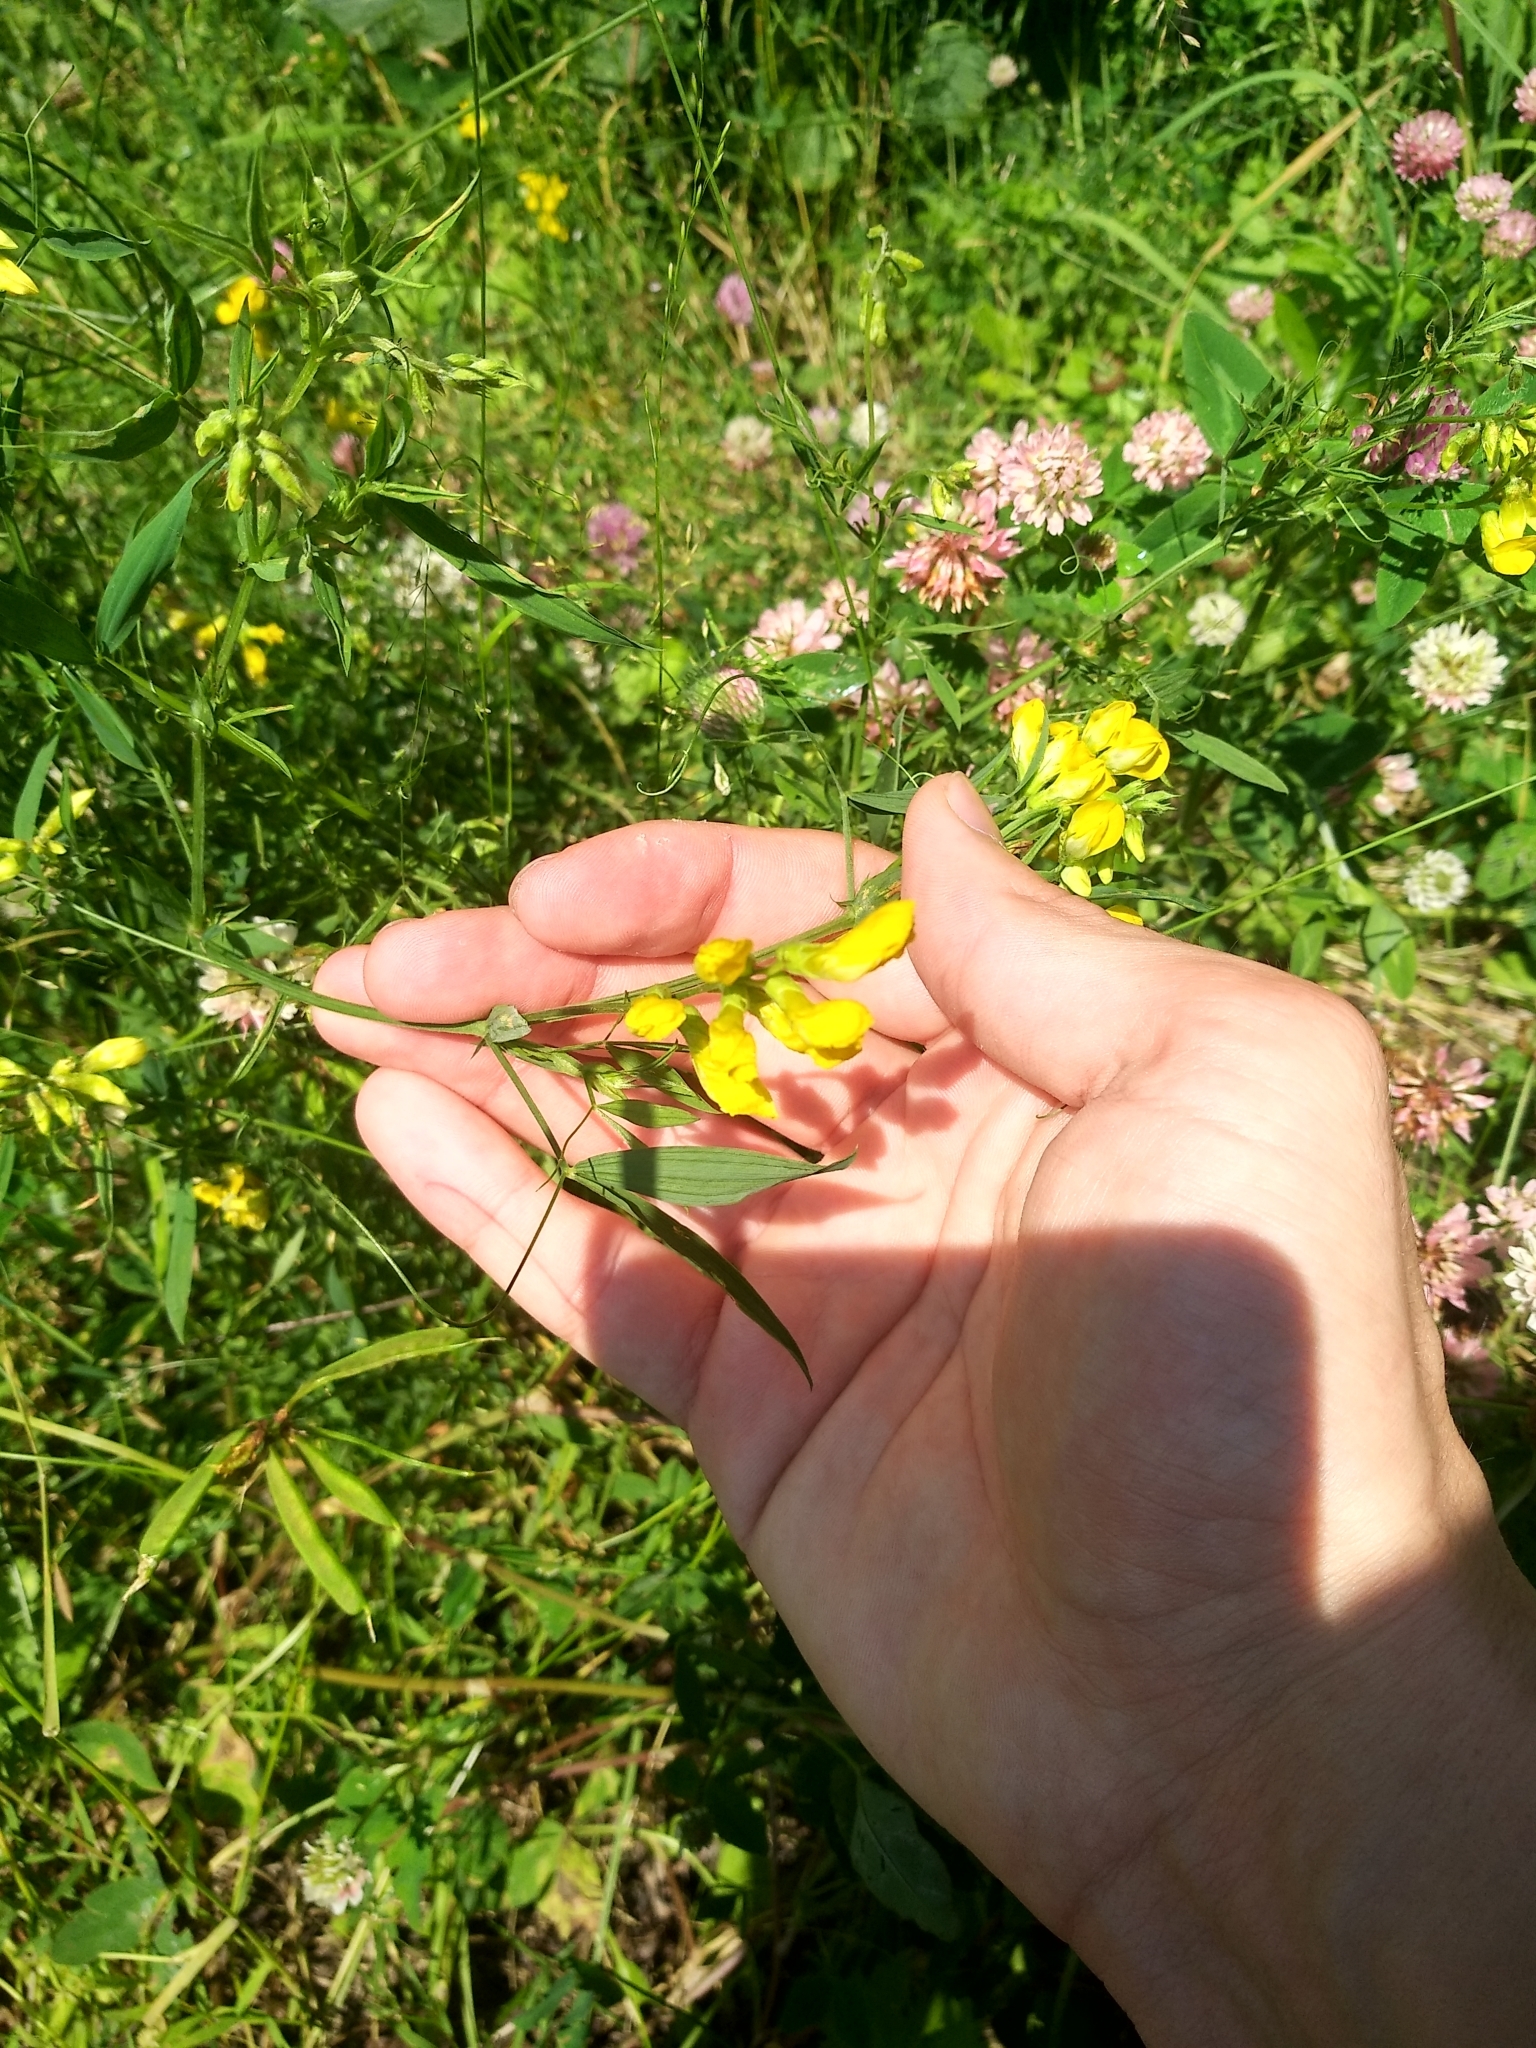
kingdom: Plantae
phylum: Tracheophyta
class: Magnoliopsida
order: Fabales
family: Fabaceae
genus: Lathyrus
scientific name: Lathyrus pratensis
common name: Meadow vetchling
